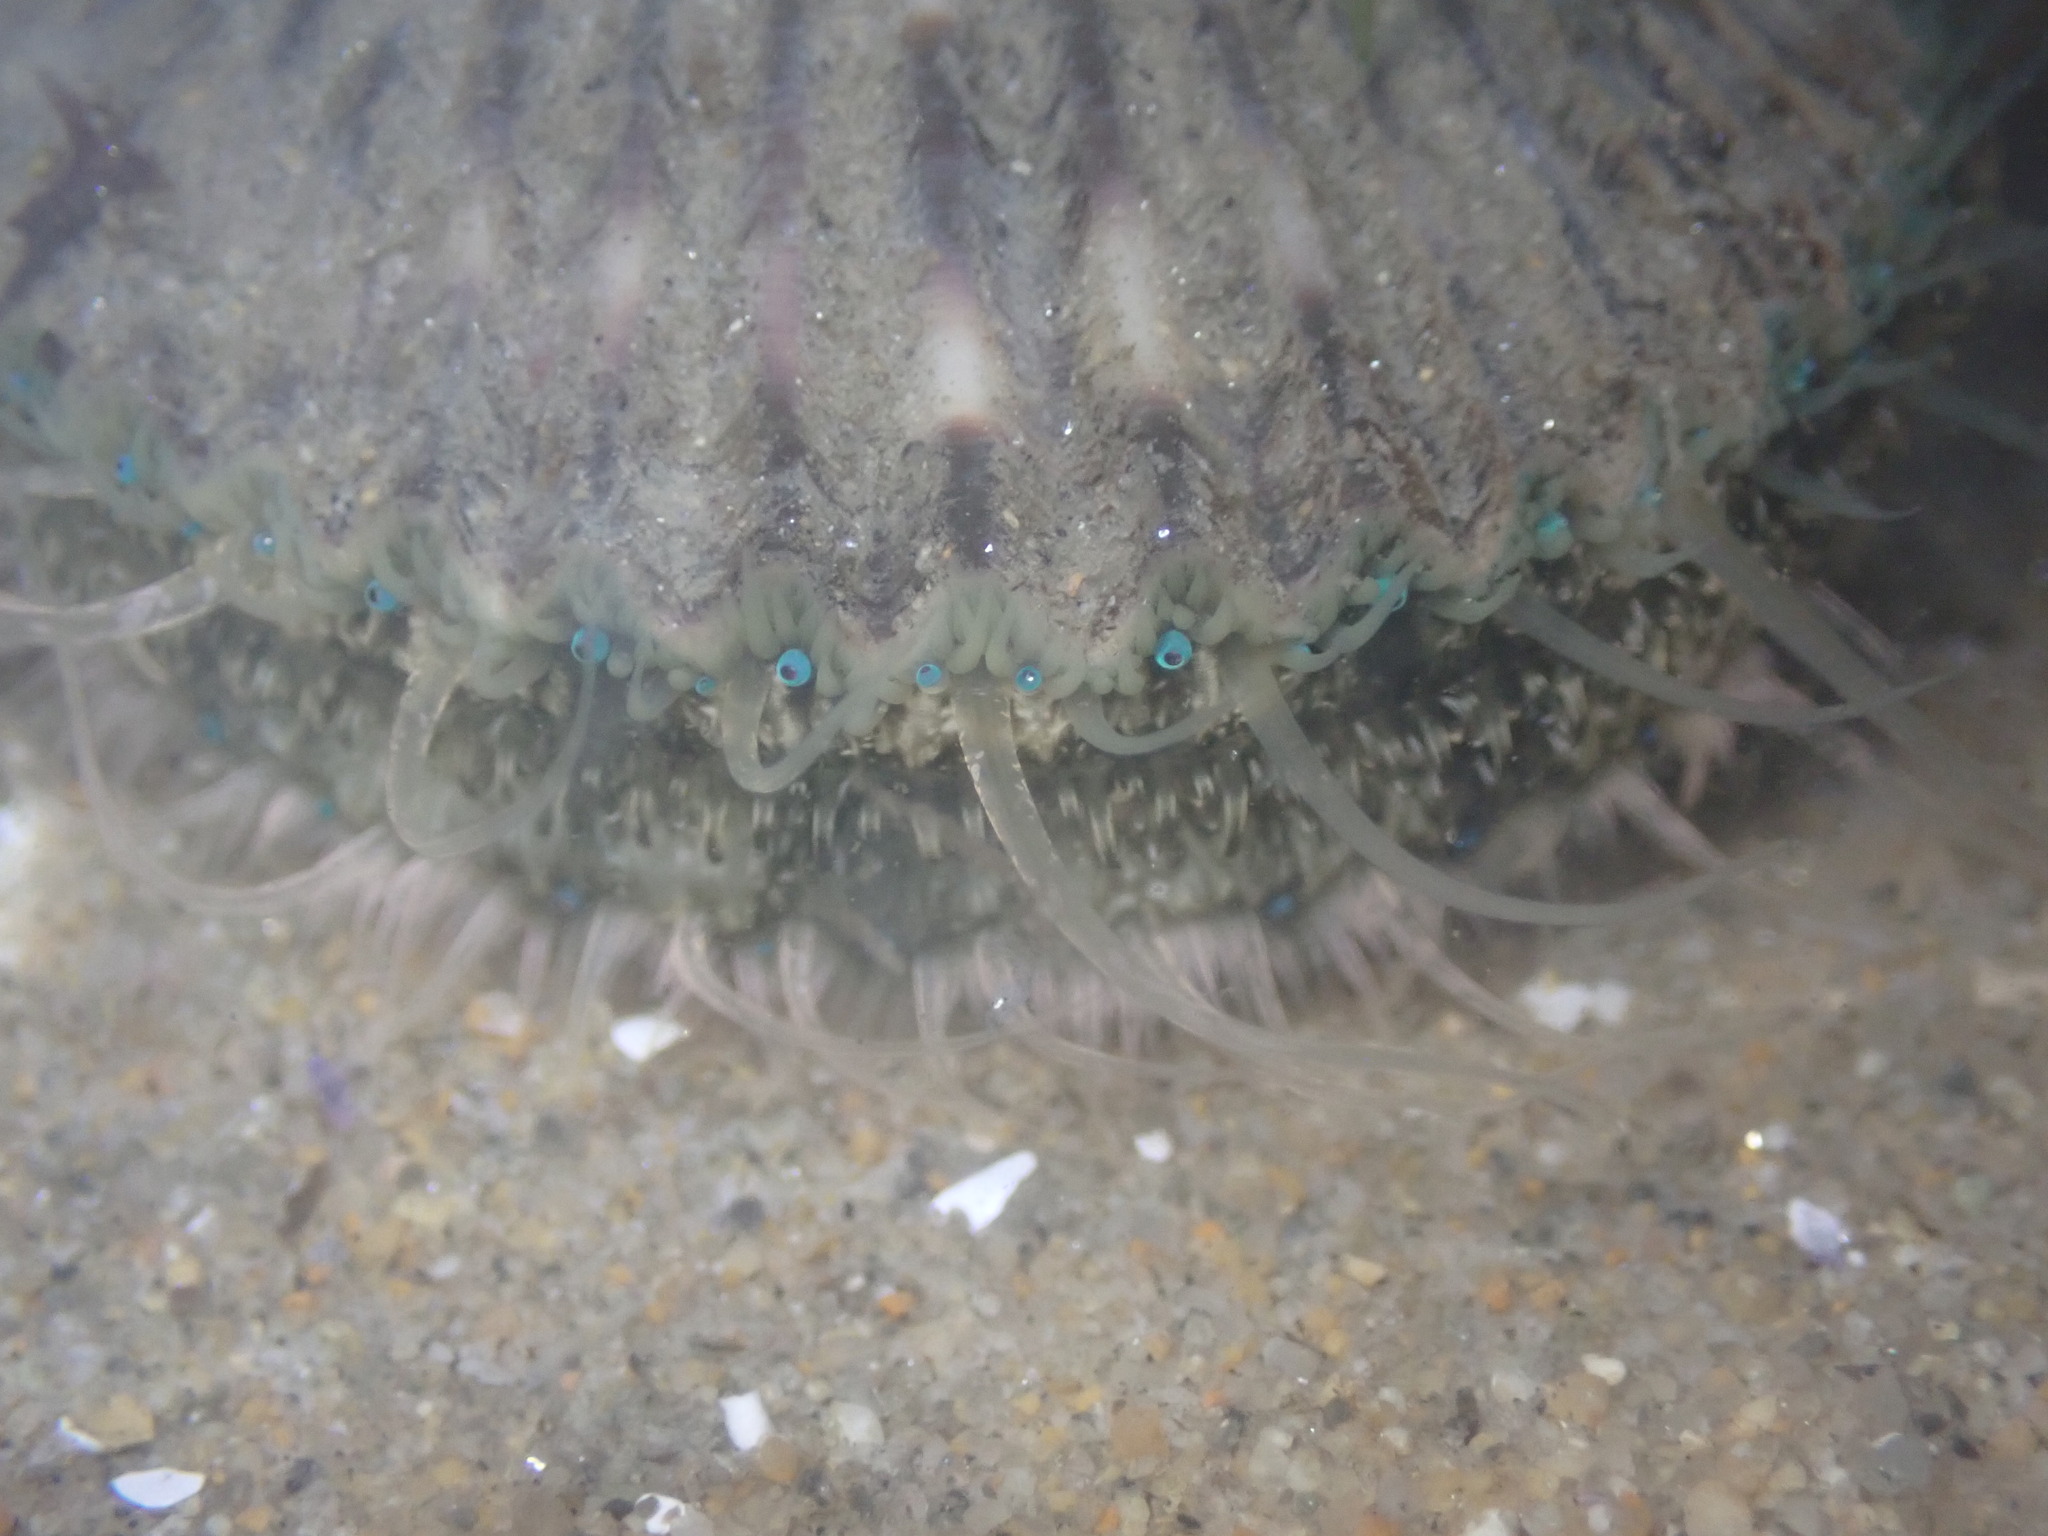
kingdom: Animalia
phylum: Mollusca
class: Bivalvia
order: Pectinida
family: Pectinidae
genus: Argopecten
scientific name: Argopecten ventricosus
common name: Catarina scallop
